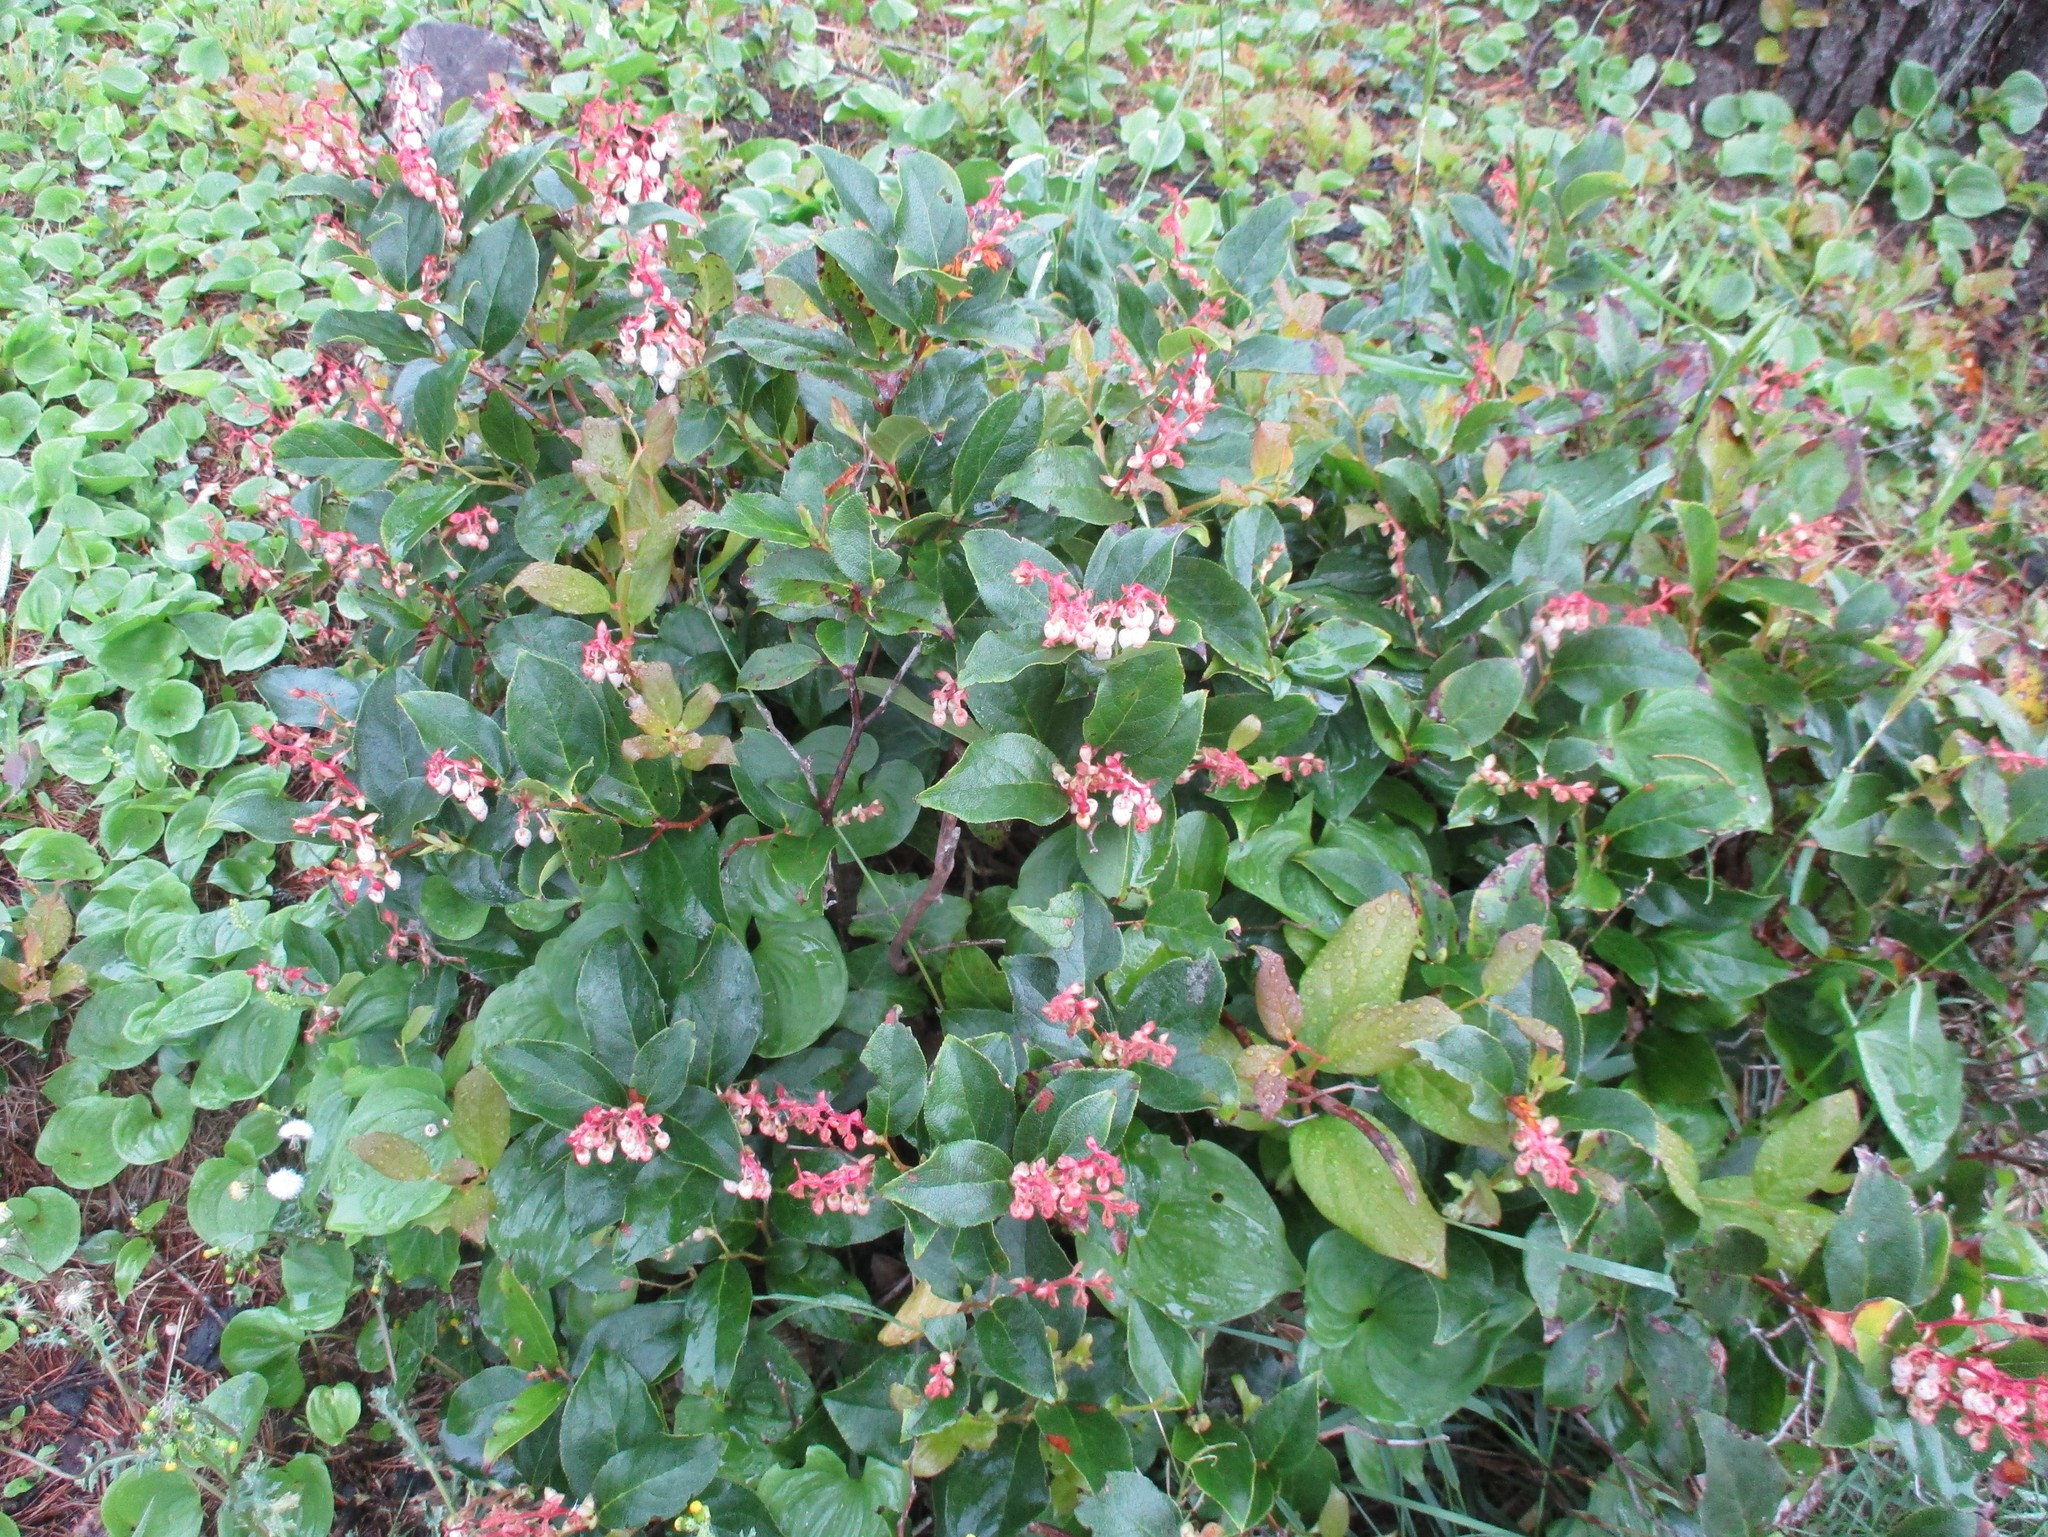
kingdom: Plantae
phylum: Tracheophyta
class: Magnoliopsida
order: Ericales
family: Ericaceae
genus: Gaultheria
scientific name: Gaultheria shallon
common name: Shallon
